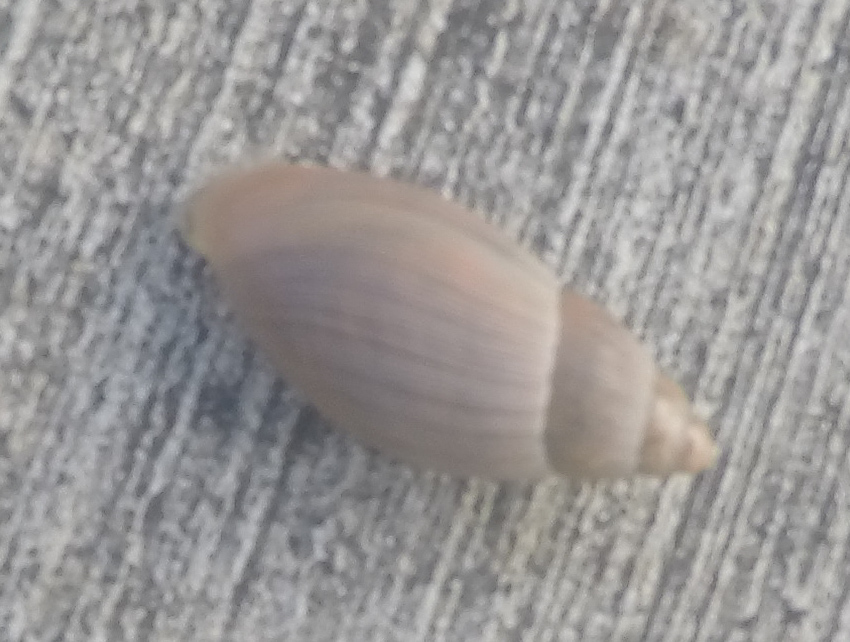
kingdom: Animalia
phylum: Mollusca
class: Gastropoda
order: Stylommatophora
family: Spiraxidae
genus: Euglandina
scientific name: Euglandina rosea
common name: Rosy wolfsnail
